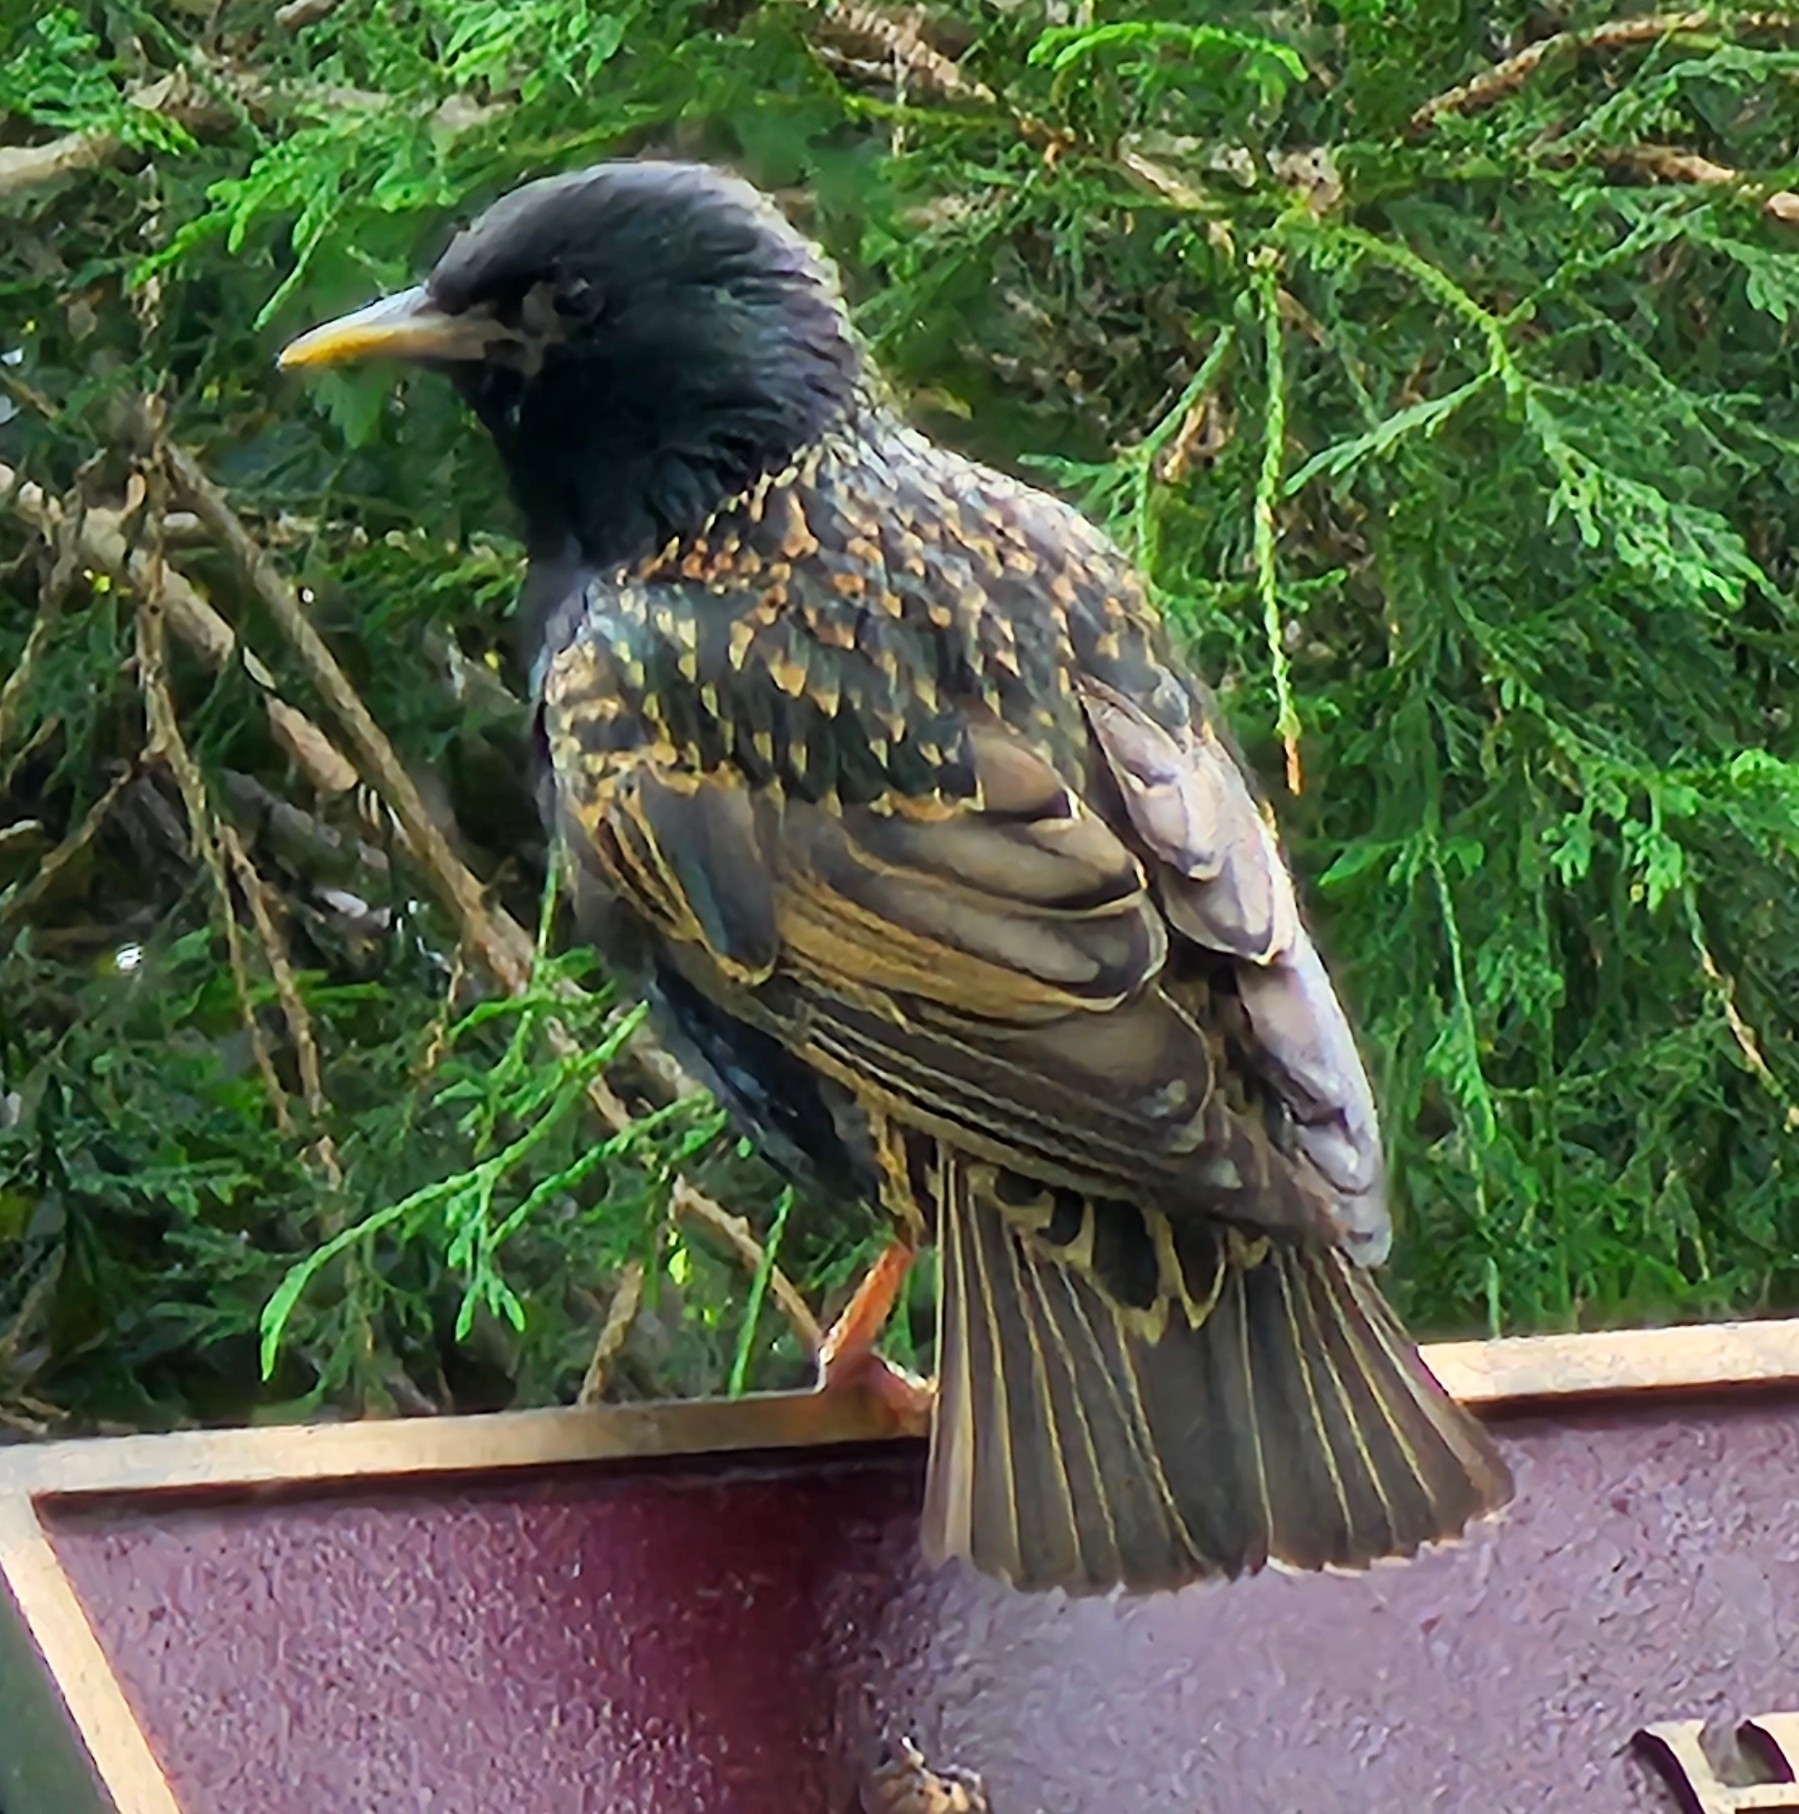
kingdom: Animalia
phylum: Chordata
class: Aves
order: Passeriformes
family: Sturnidae
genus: Sturnus
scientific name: Sturnus vulgaris
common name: Common starling
